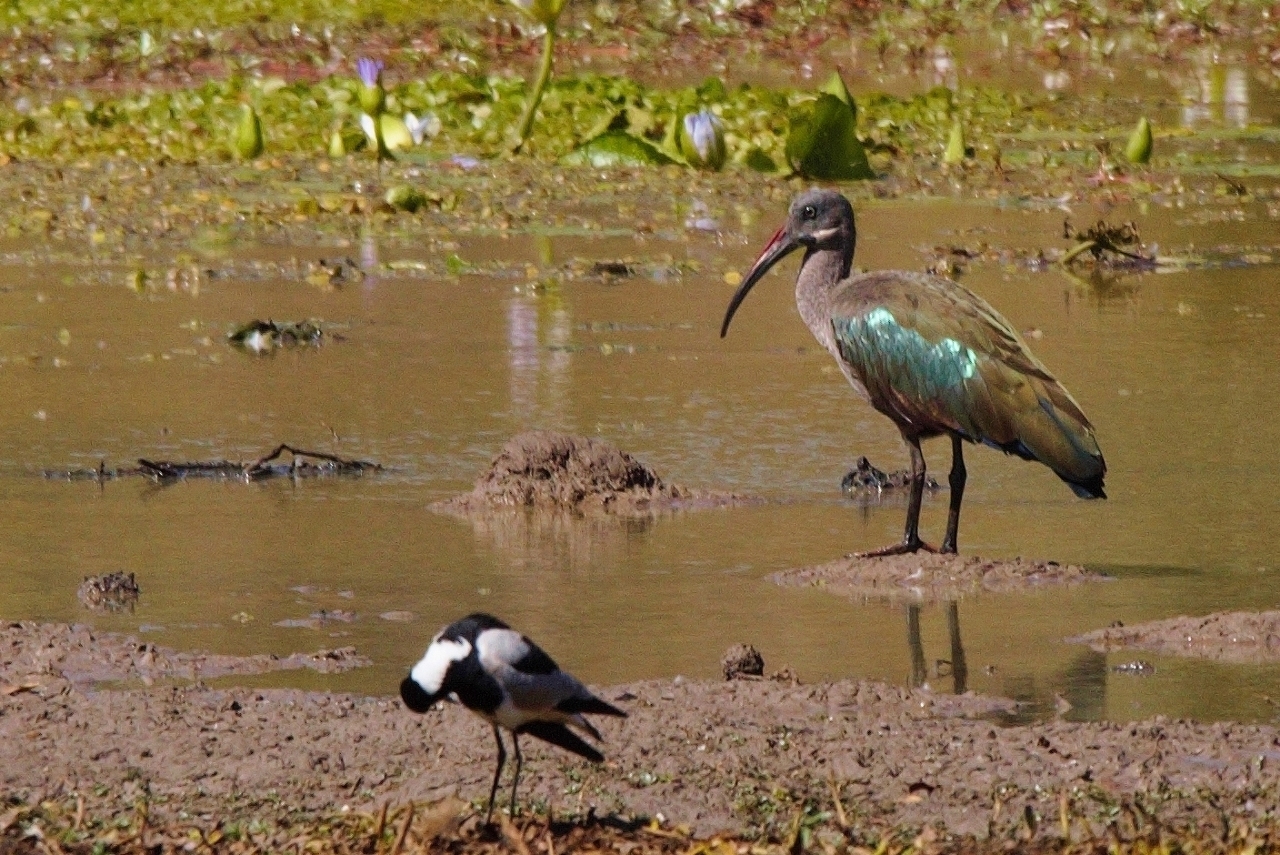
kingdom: Animalia
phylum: Chordata
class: Aves
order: Pelecaniformes
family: Threskiornithidae
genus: Bostrychia
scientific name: Bostrychia hagedash
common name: Hadada ibis
